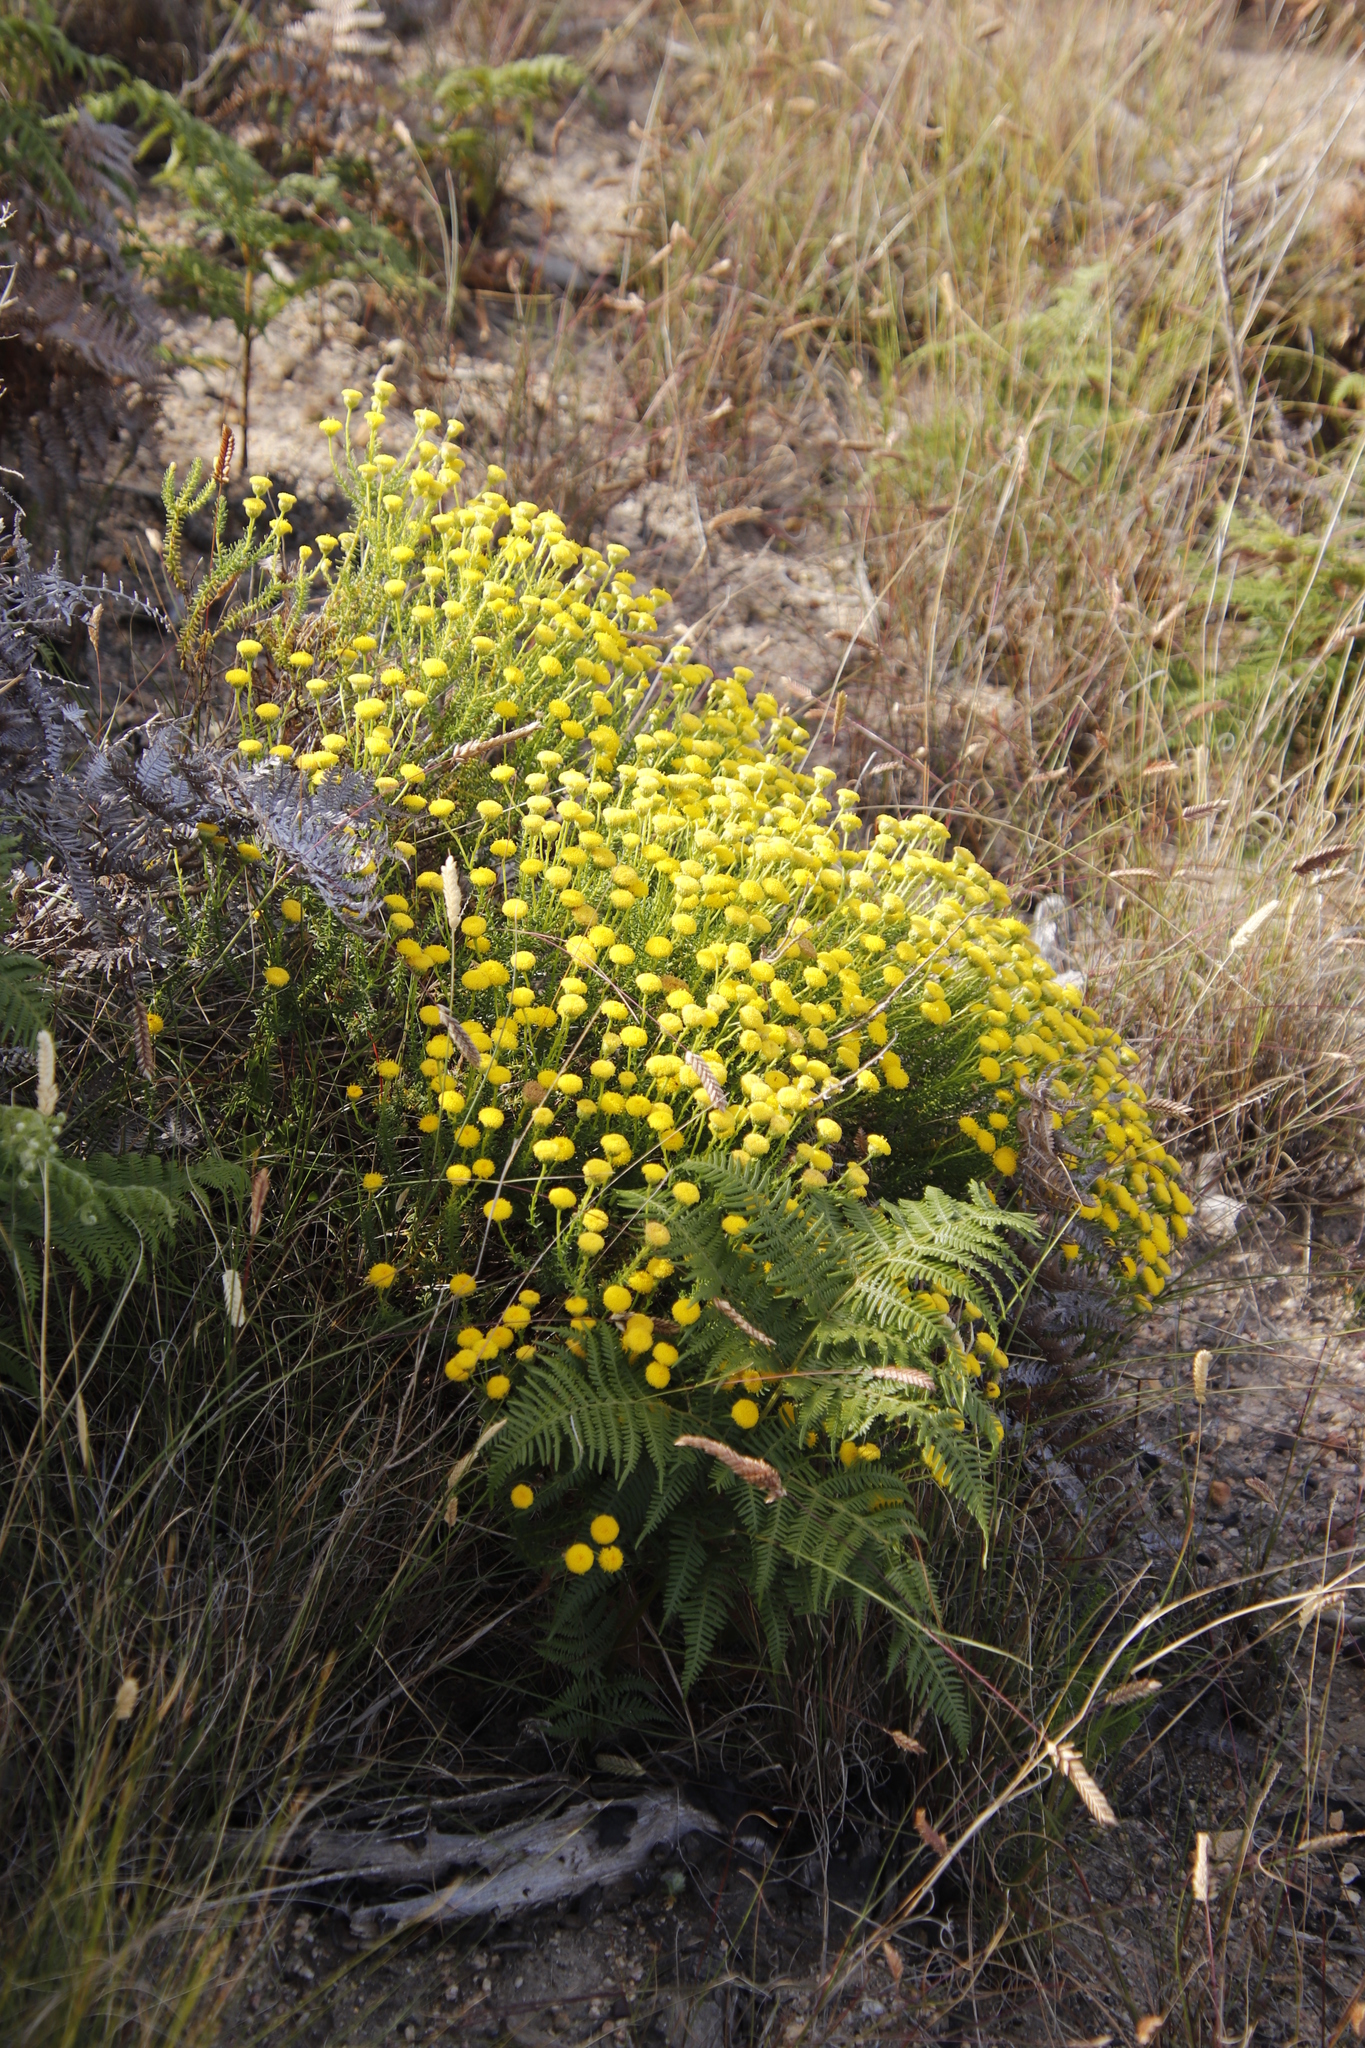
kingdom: Plantae
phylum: Tracheophyta
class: Magnoliopsida
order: Asterales
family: Asteraceae
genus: Chrysocoma
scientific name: Chrysocoma cernua
